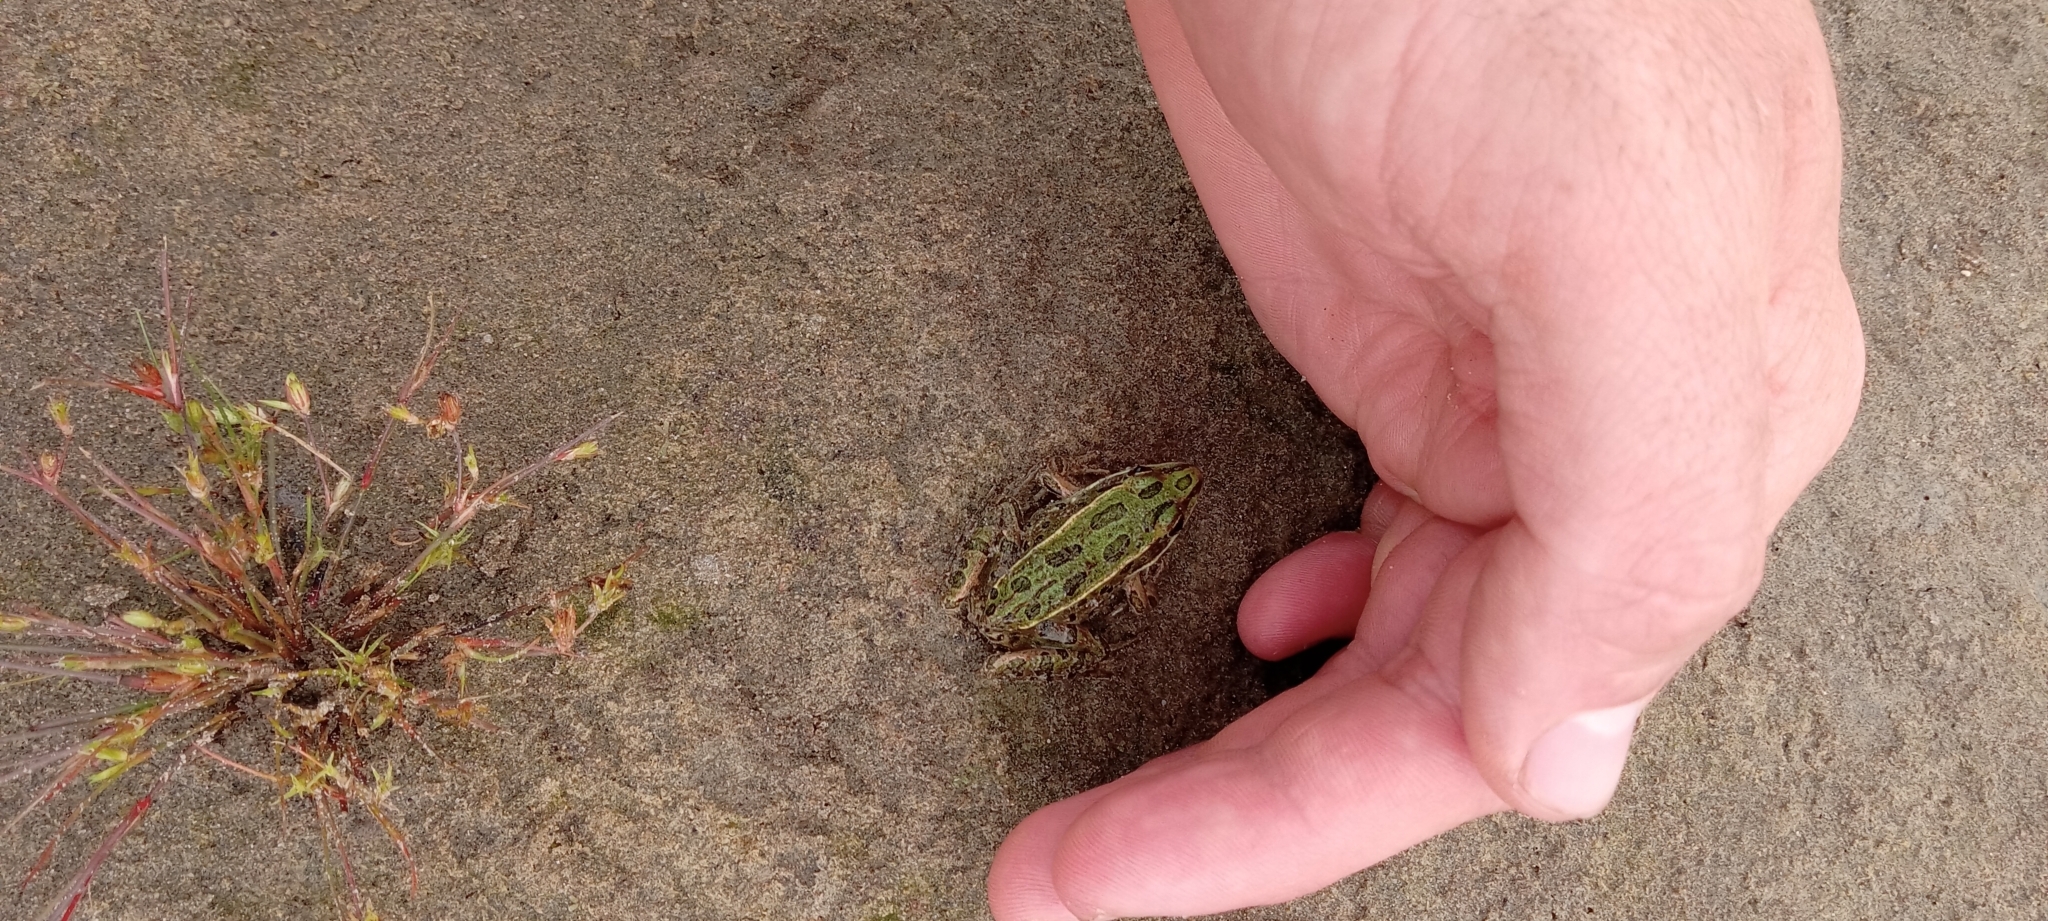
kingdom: Animalia
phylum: Chordata
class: Amphibia
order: Anura
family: Ranidae
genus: Lithobates
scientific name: Lithobates pipiens
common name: Northern leopard frog
